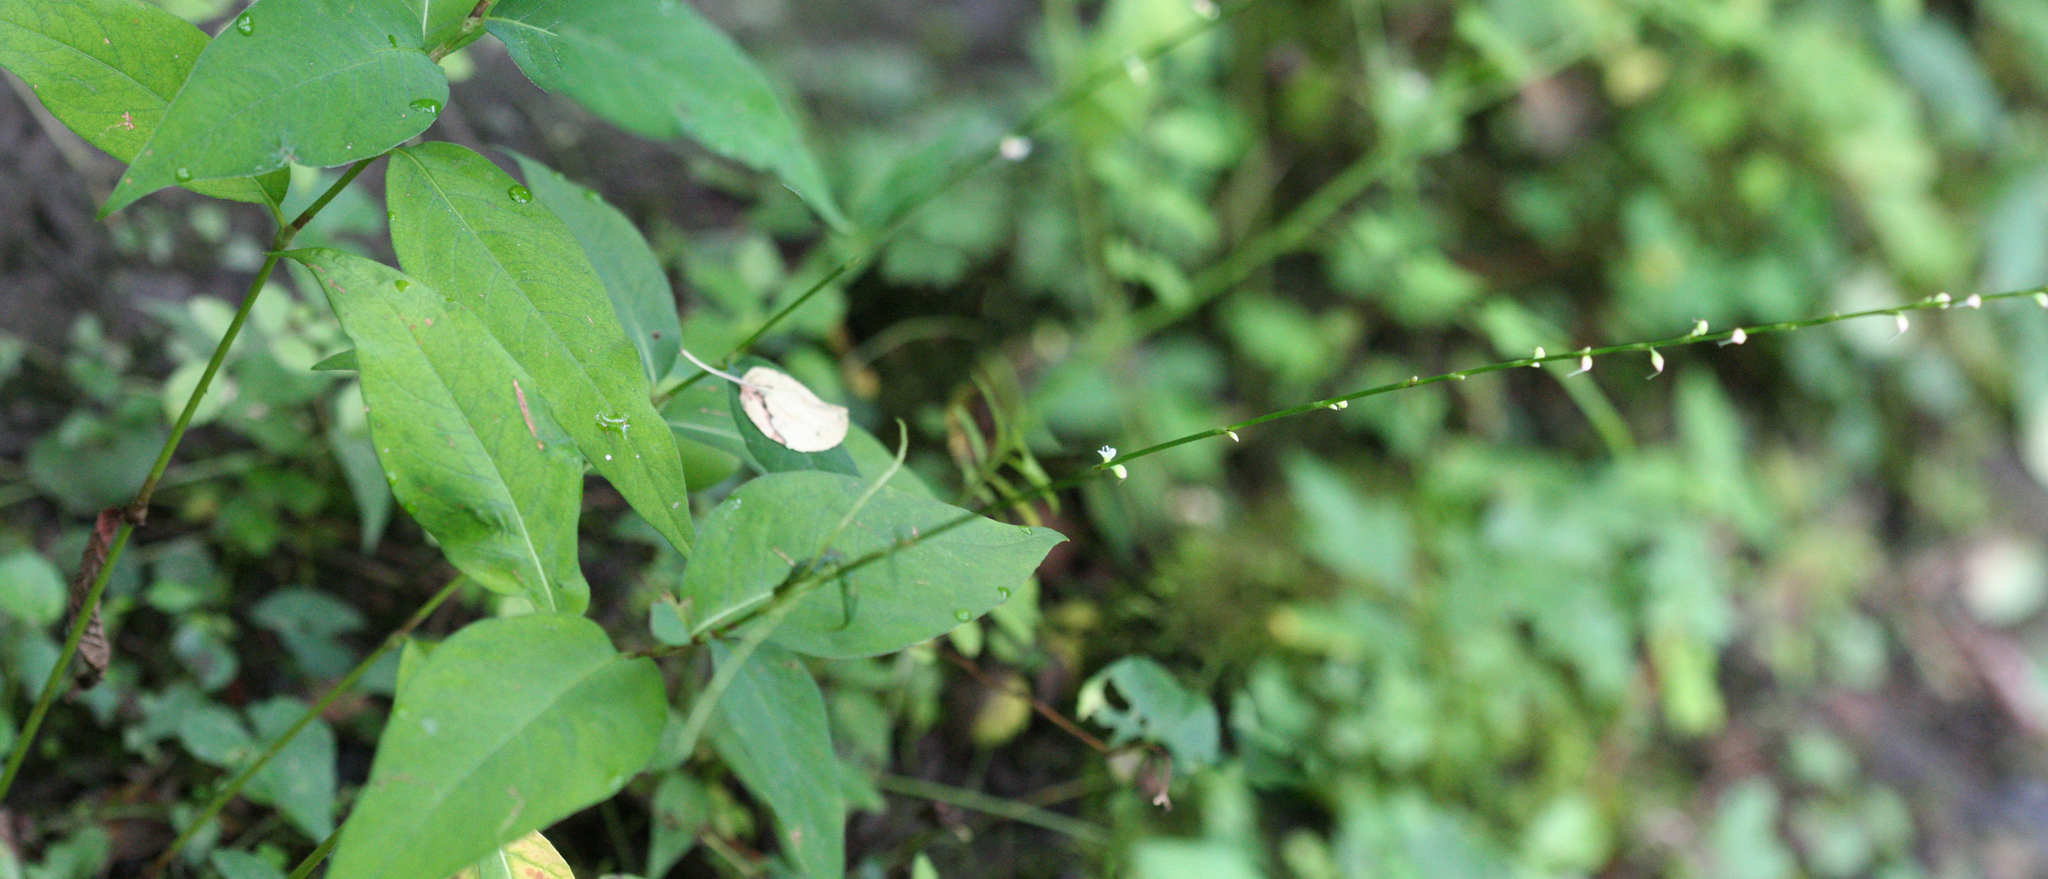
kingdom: Plantae
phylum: Tracheophyta
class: Magnoliopsida
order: Caryophyllales
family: Polygonaceae
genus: Persicaria
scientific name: Persicaria virginiana
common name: Jumpseed
